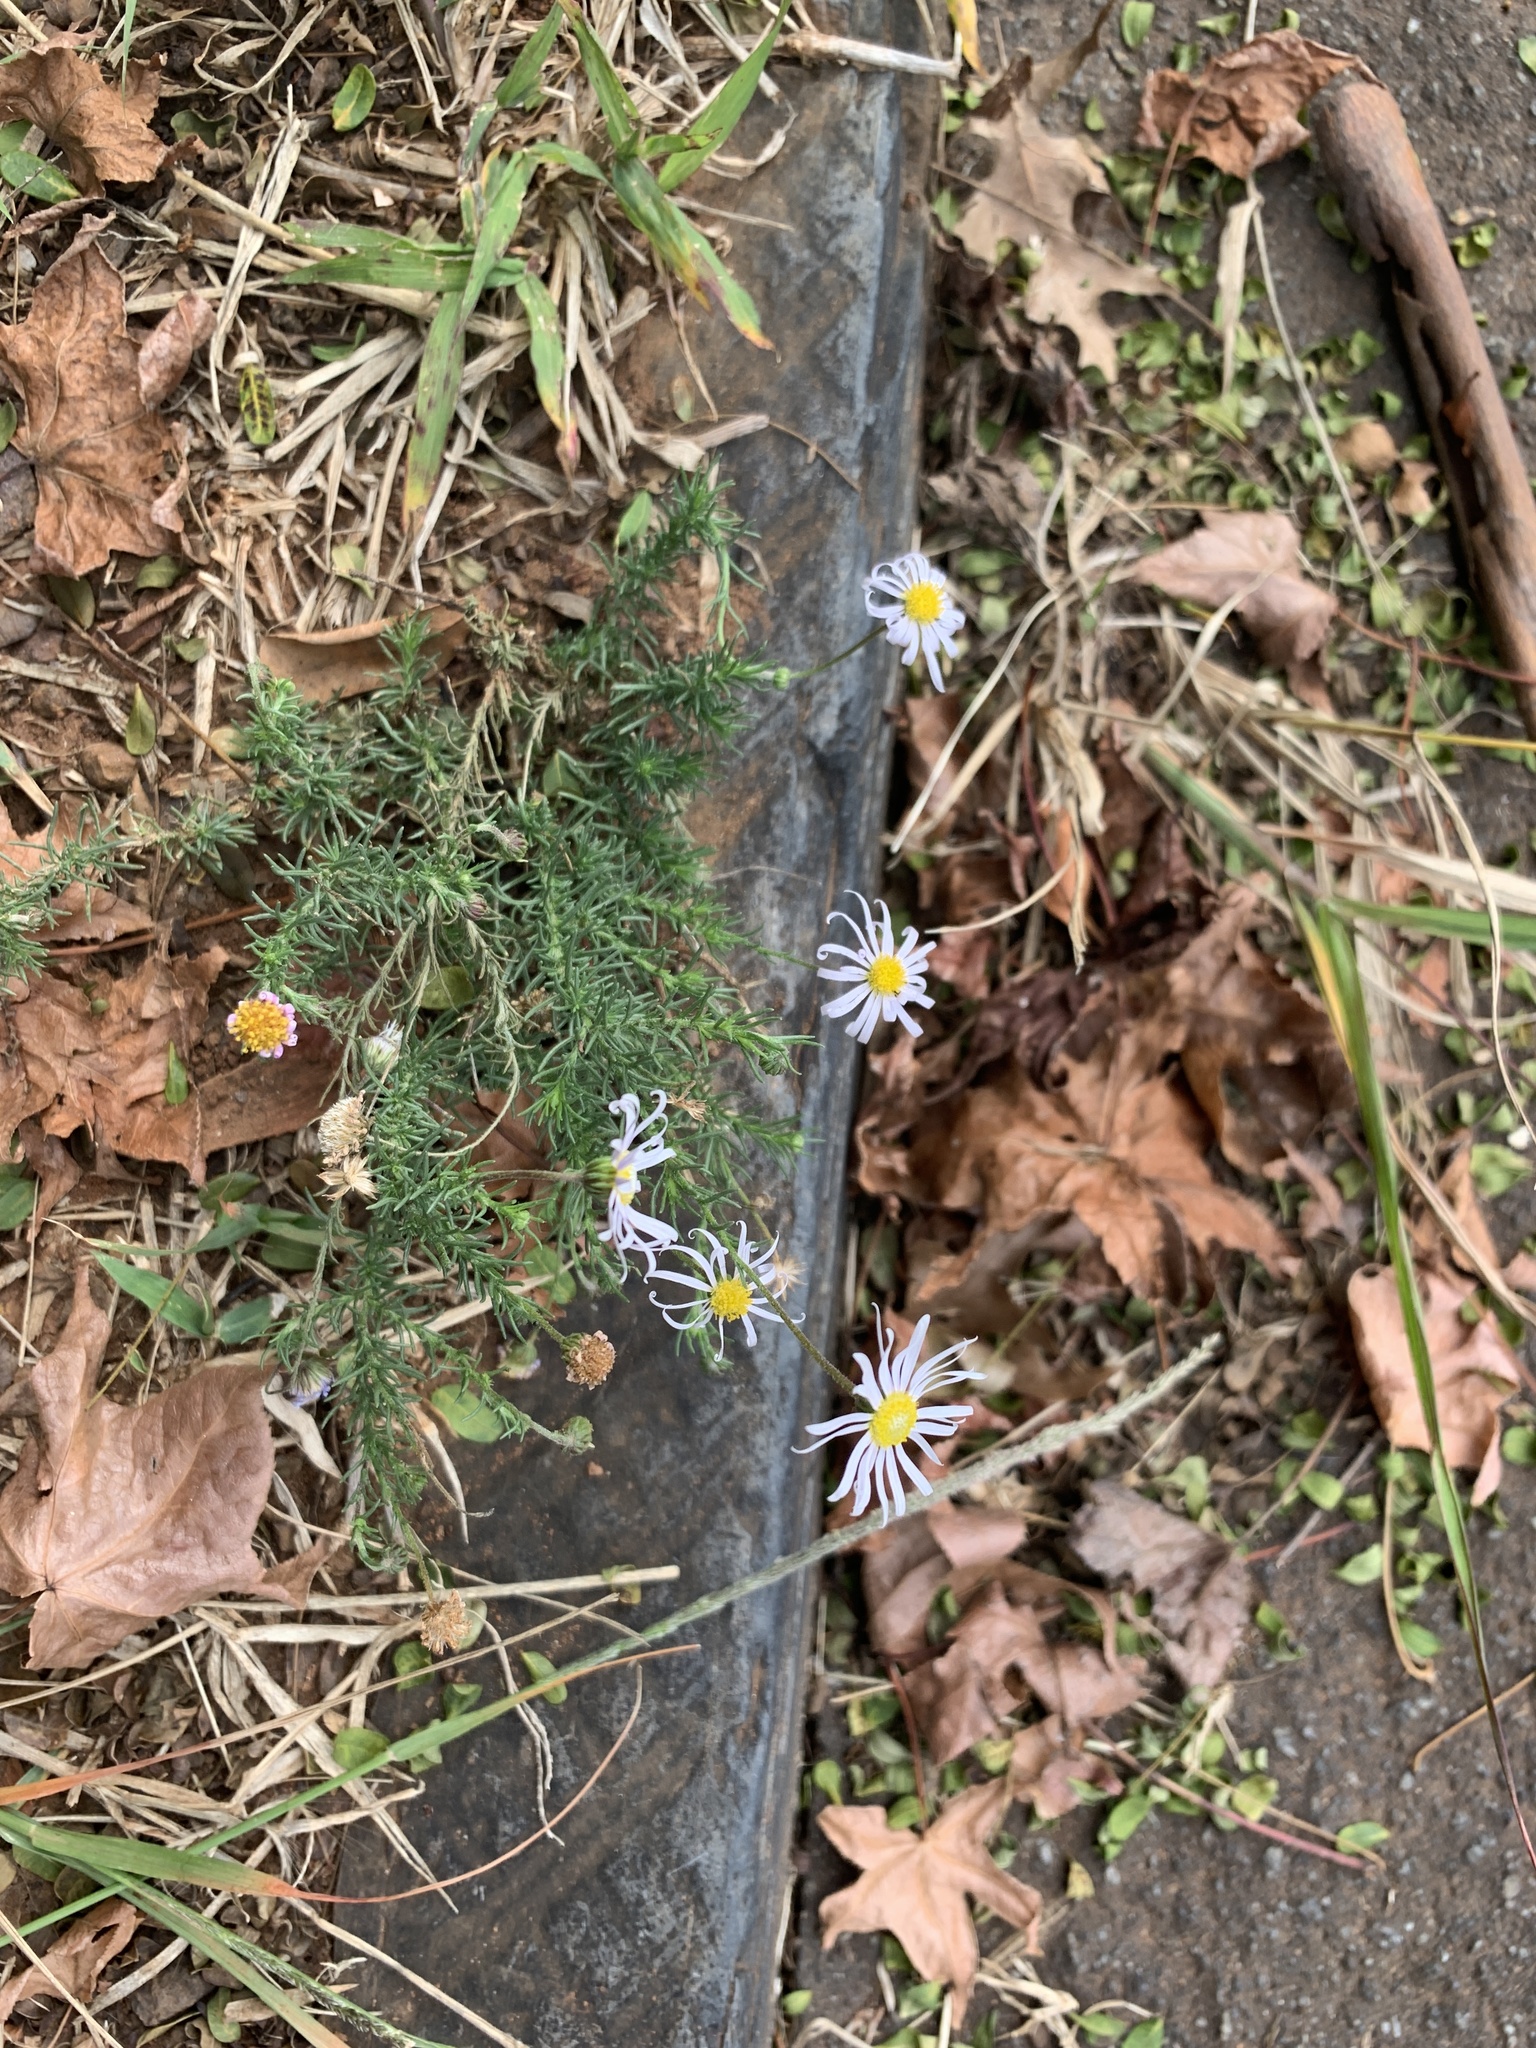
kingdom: Plantae
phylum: Tracheophyta
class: Magnoliopsida
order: Asterales
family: Asteraceae
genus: Felicia
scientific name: Felicia muricata
